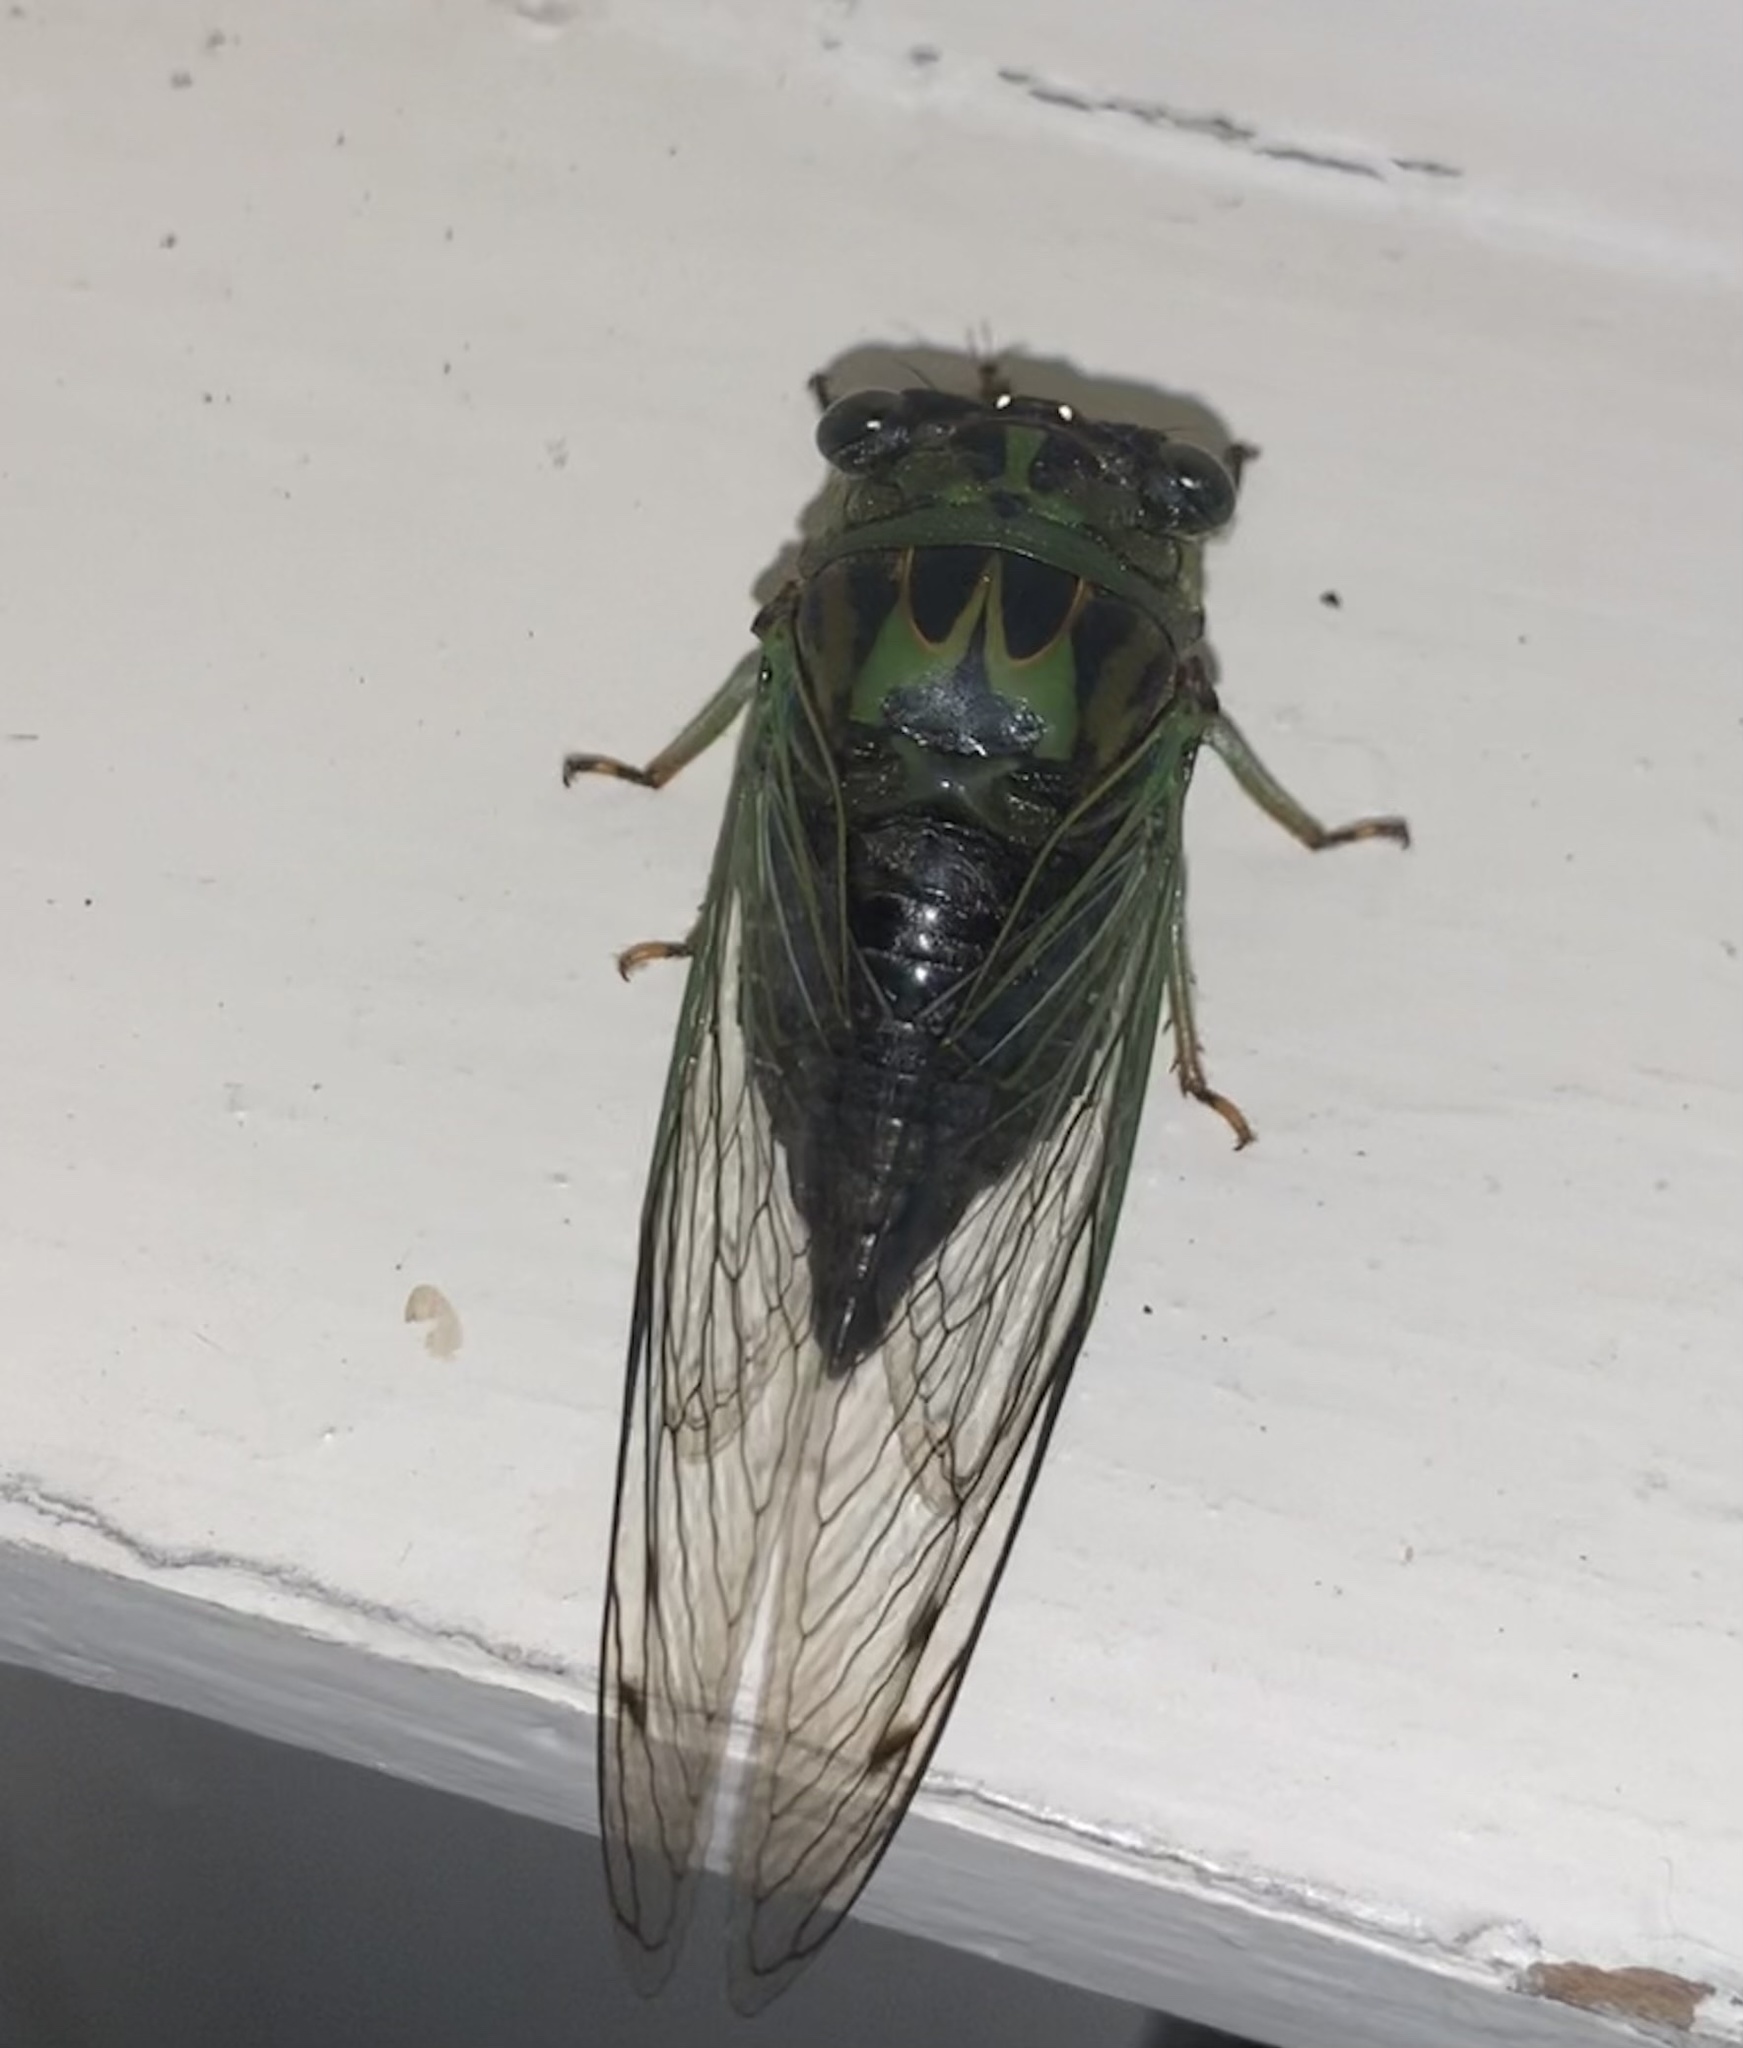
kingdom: Animalia
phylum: Arthropoda
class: Insecta
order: Hemiptera
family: Cicadidae
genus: Neotibicen
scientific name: Neotibicen linnei
